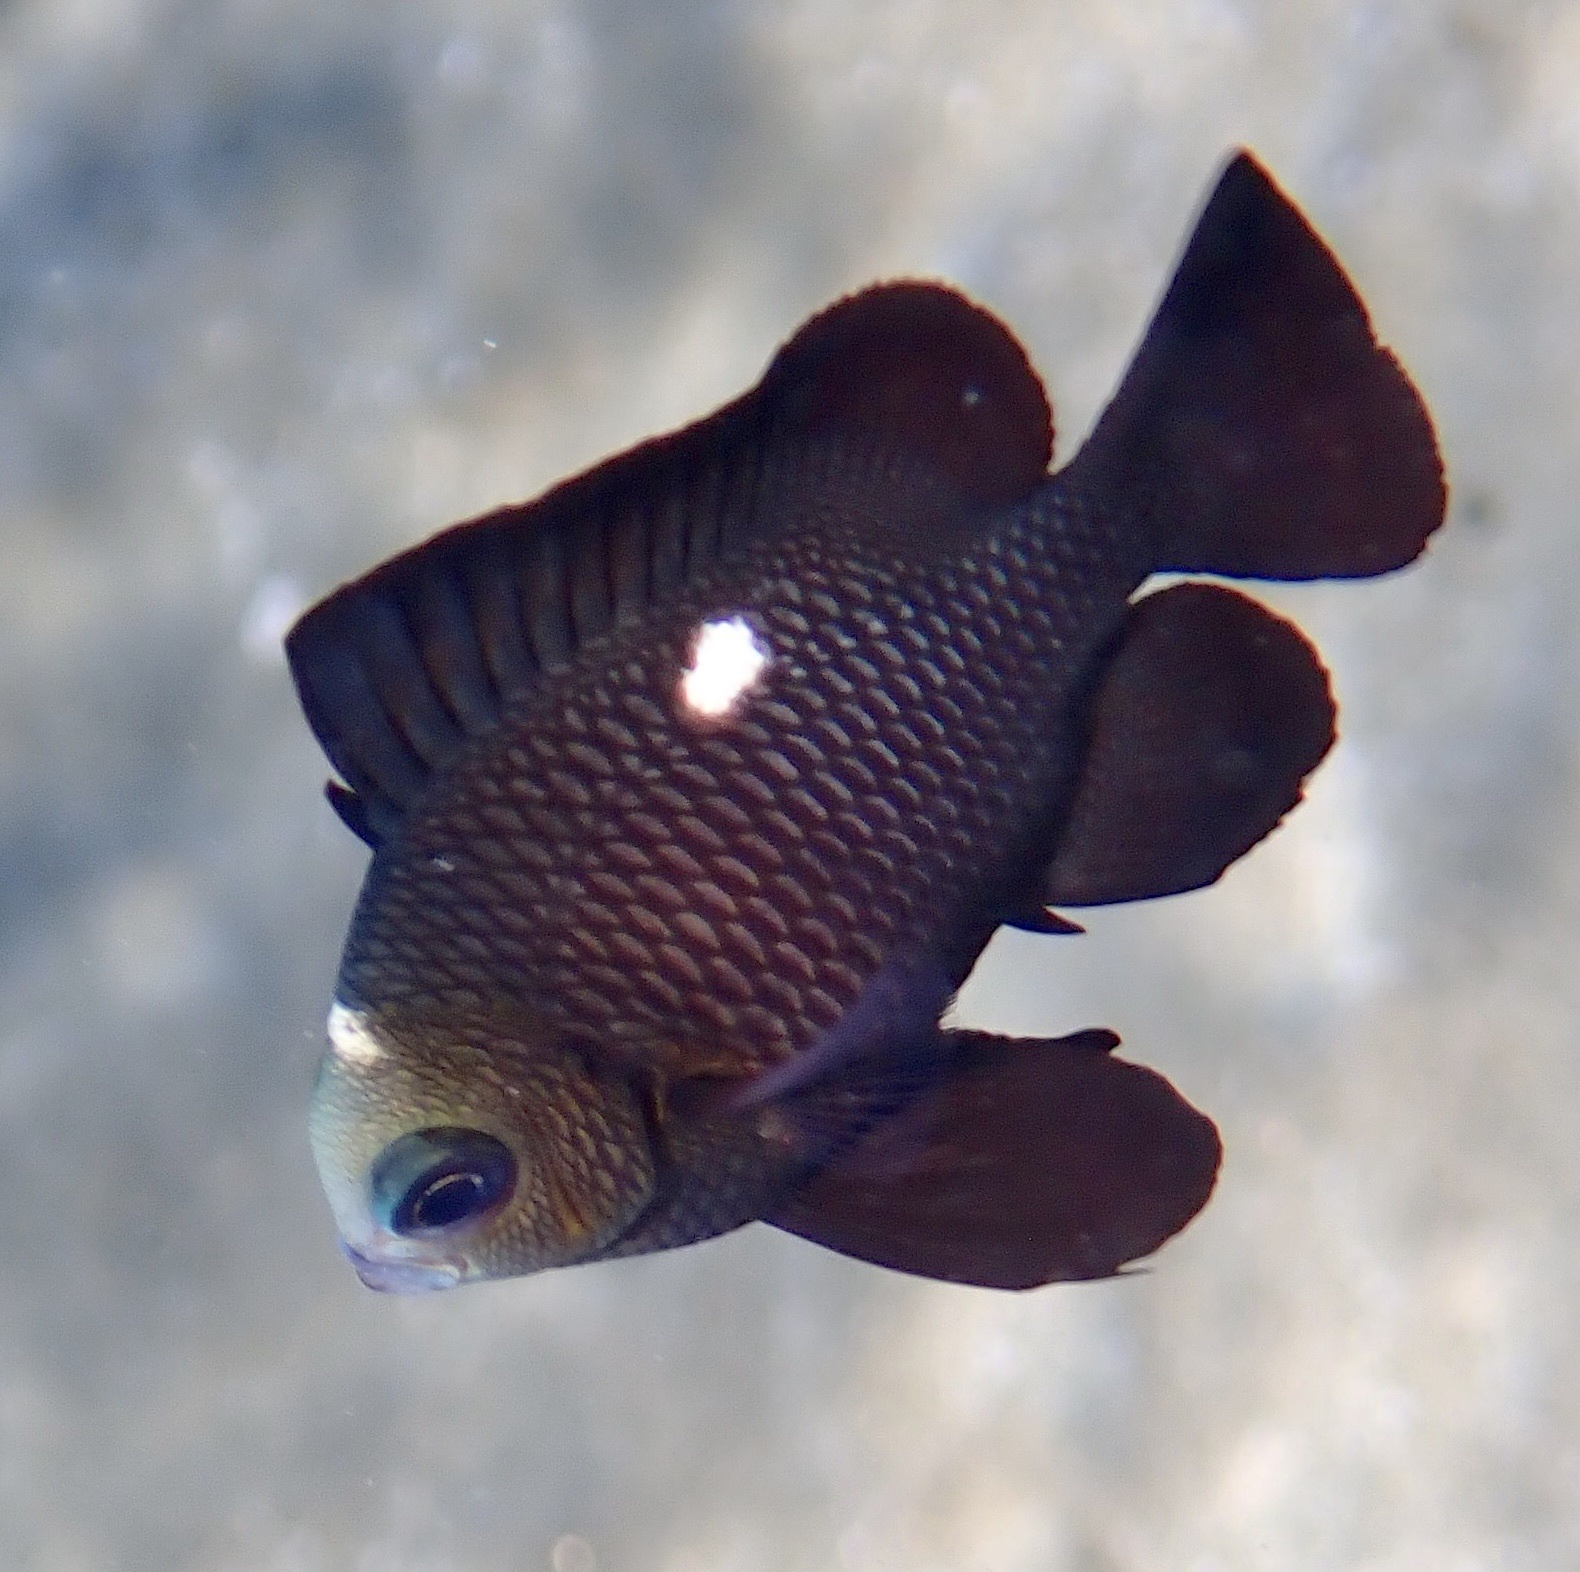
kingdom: Animalia
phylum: Chordata
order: Perciformes
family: Pomacentridae
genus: Dascyllus
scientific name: Dascyllus trimaculatus
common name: Threespot dascyllus
